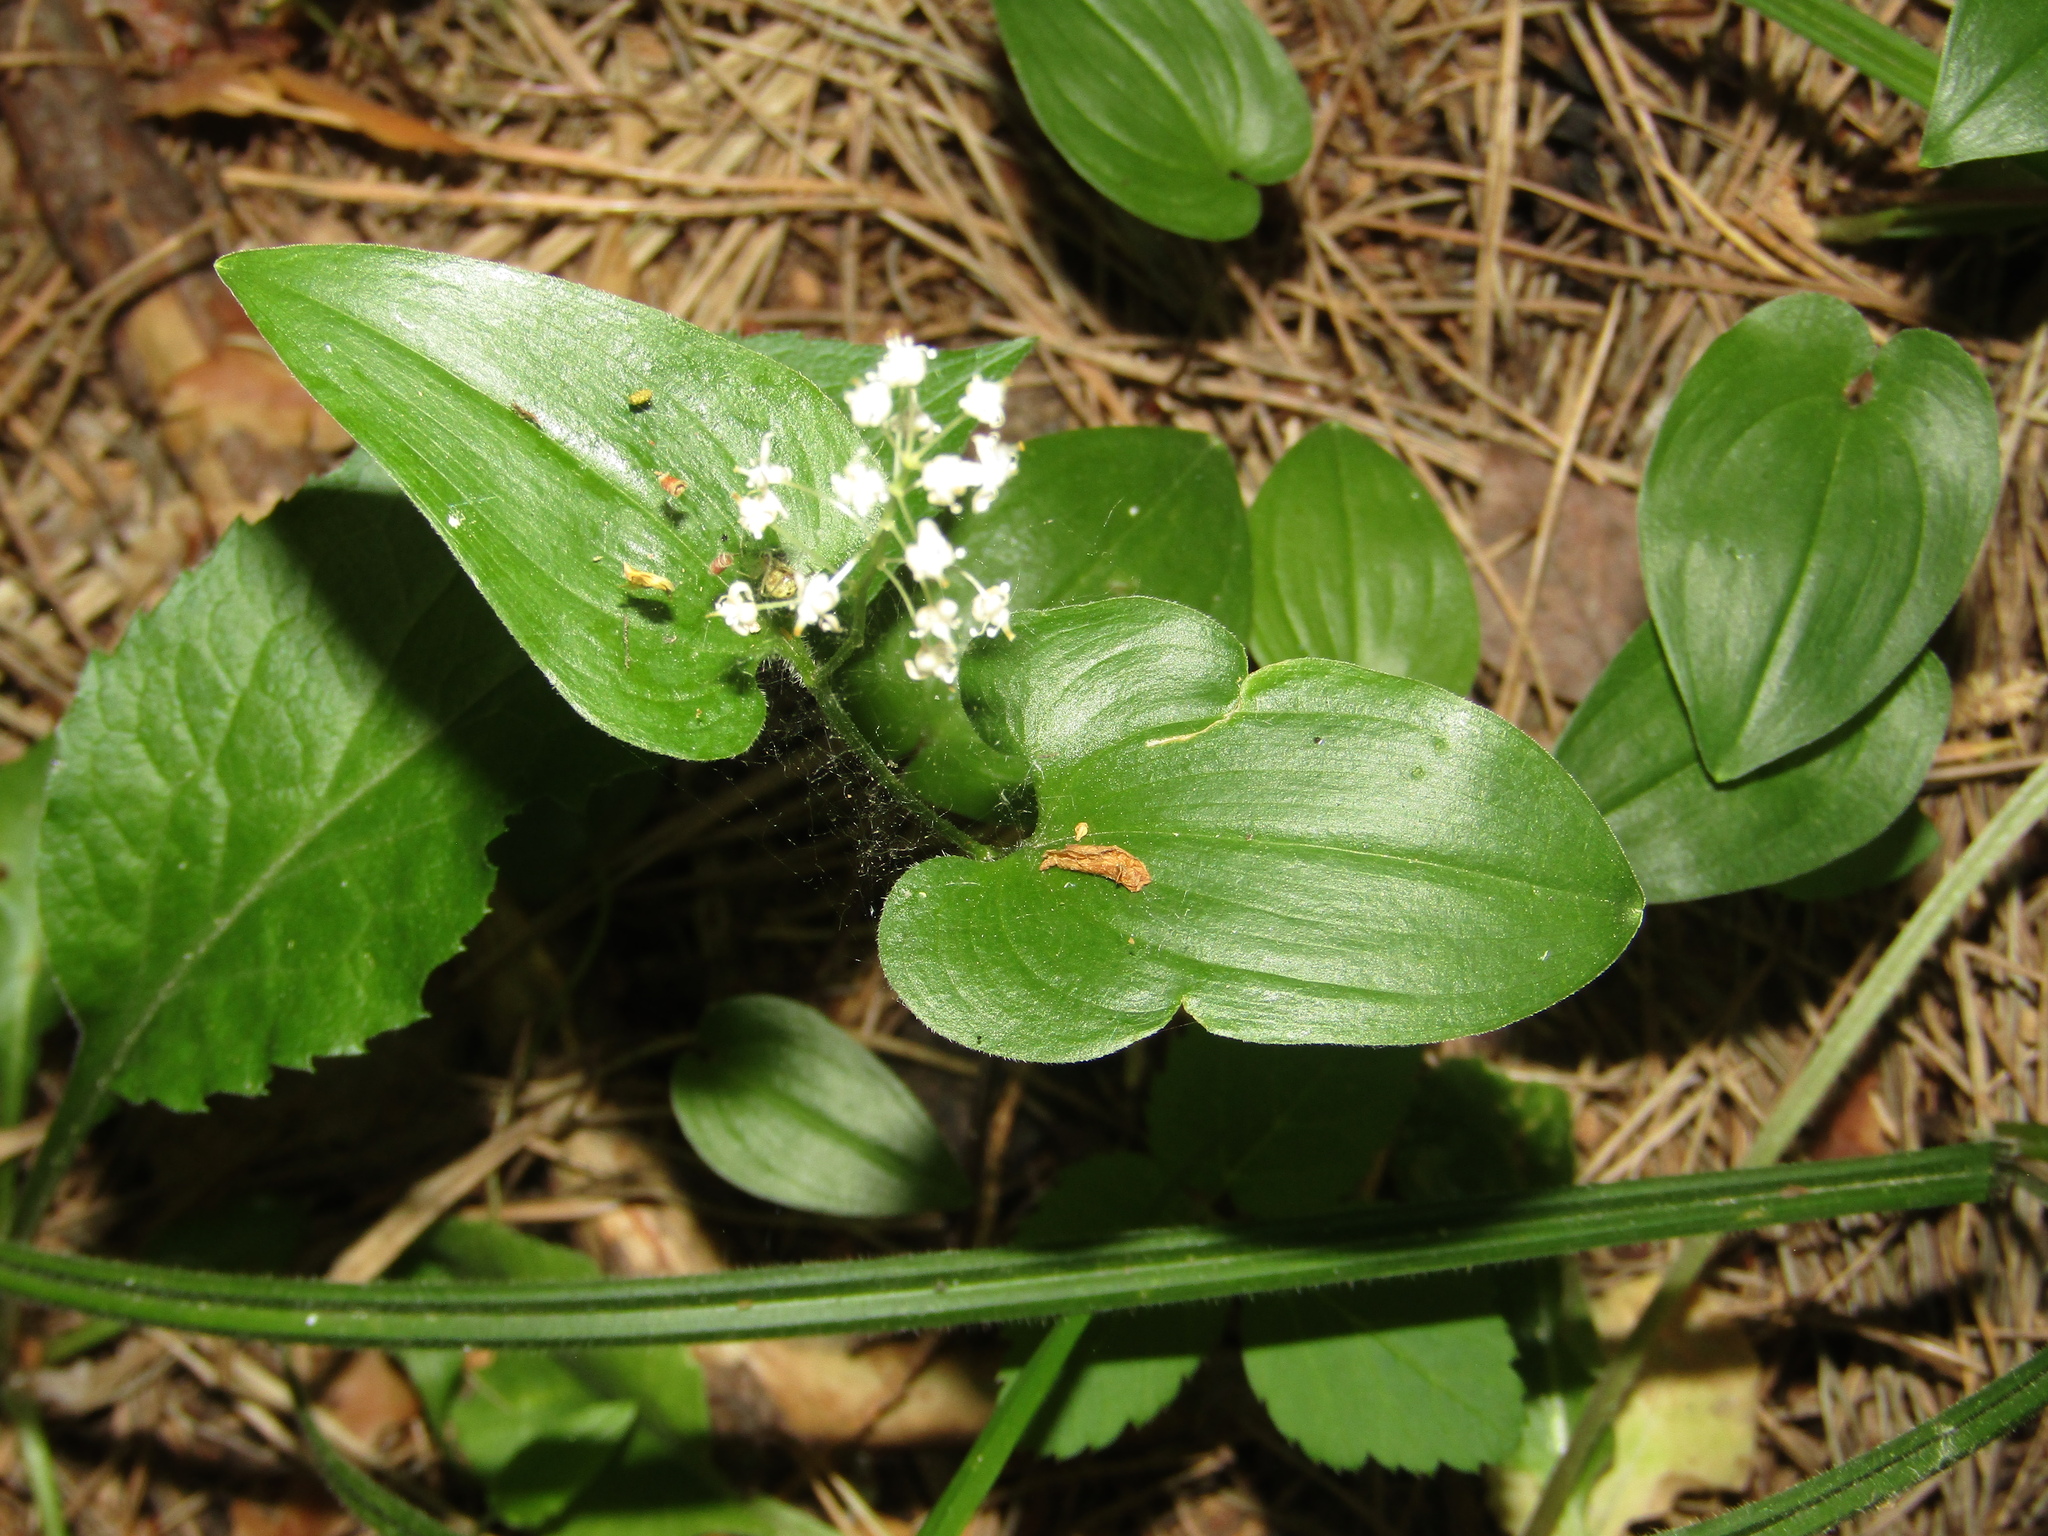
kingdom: Plantae
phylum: Tracheophyta
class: Liliopsida
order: Asparagales
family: Asparagaceae
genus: Maianthemum
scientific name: Maianthemum bifolium
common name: May lily
